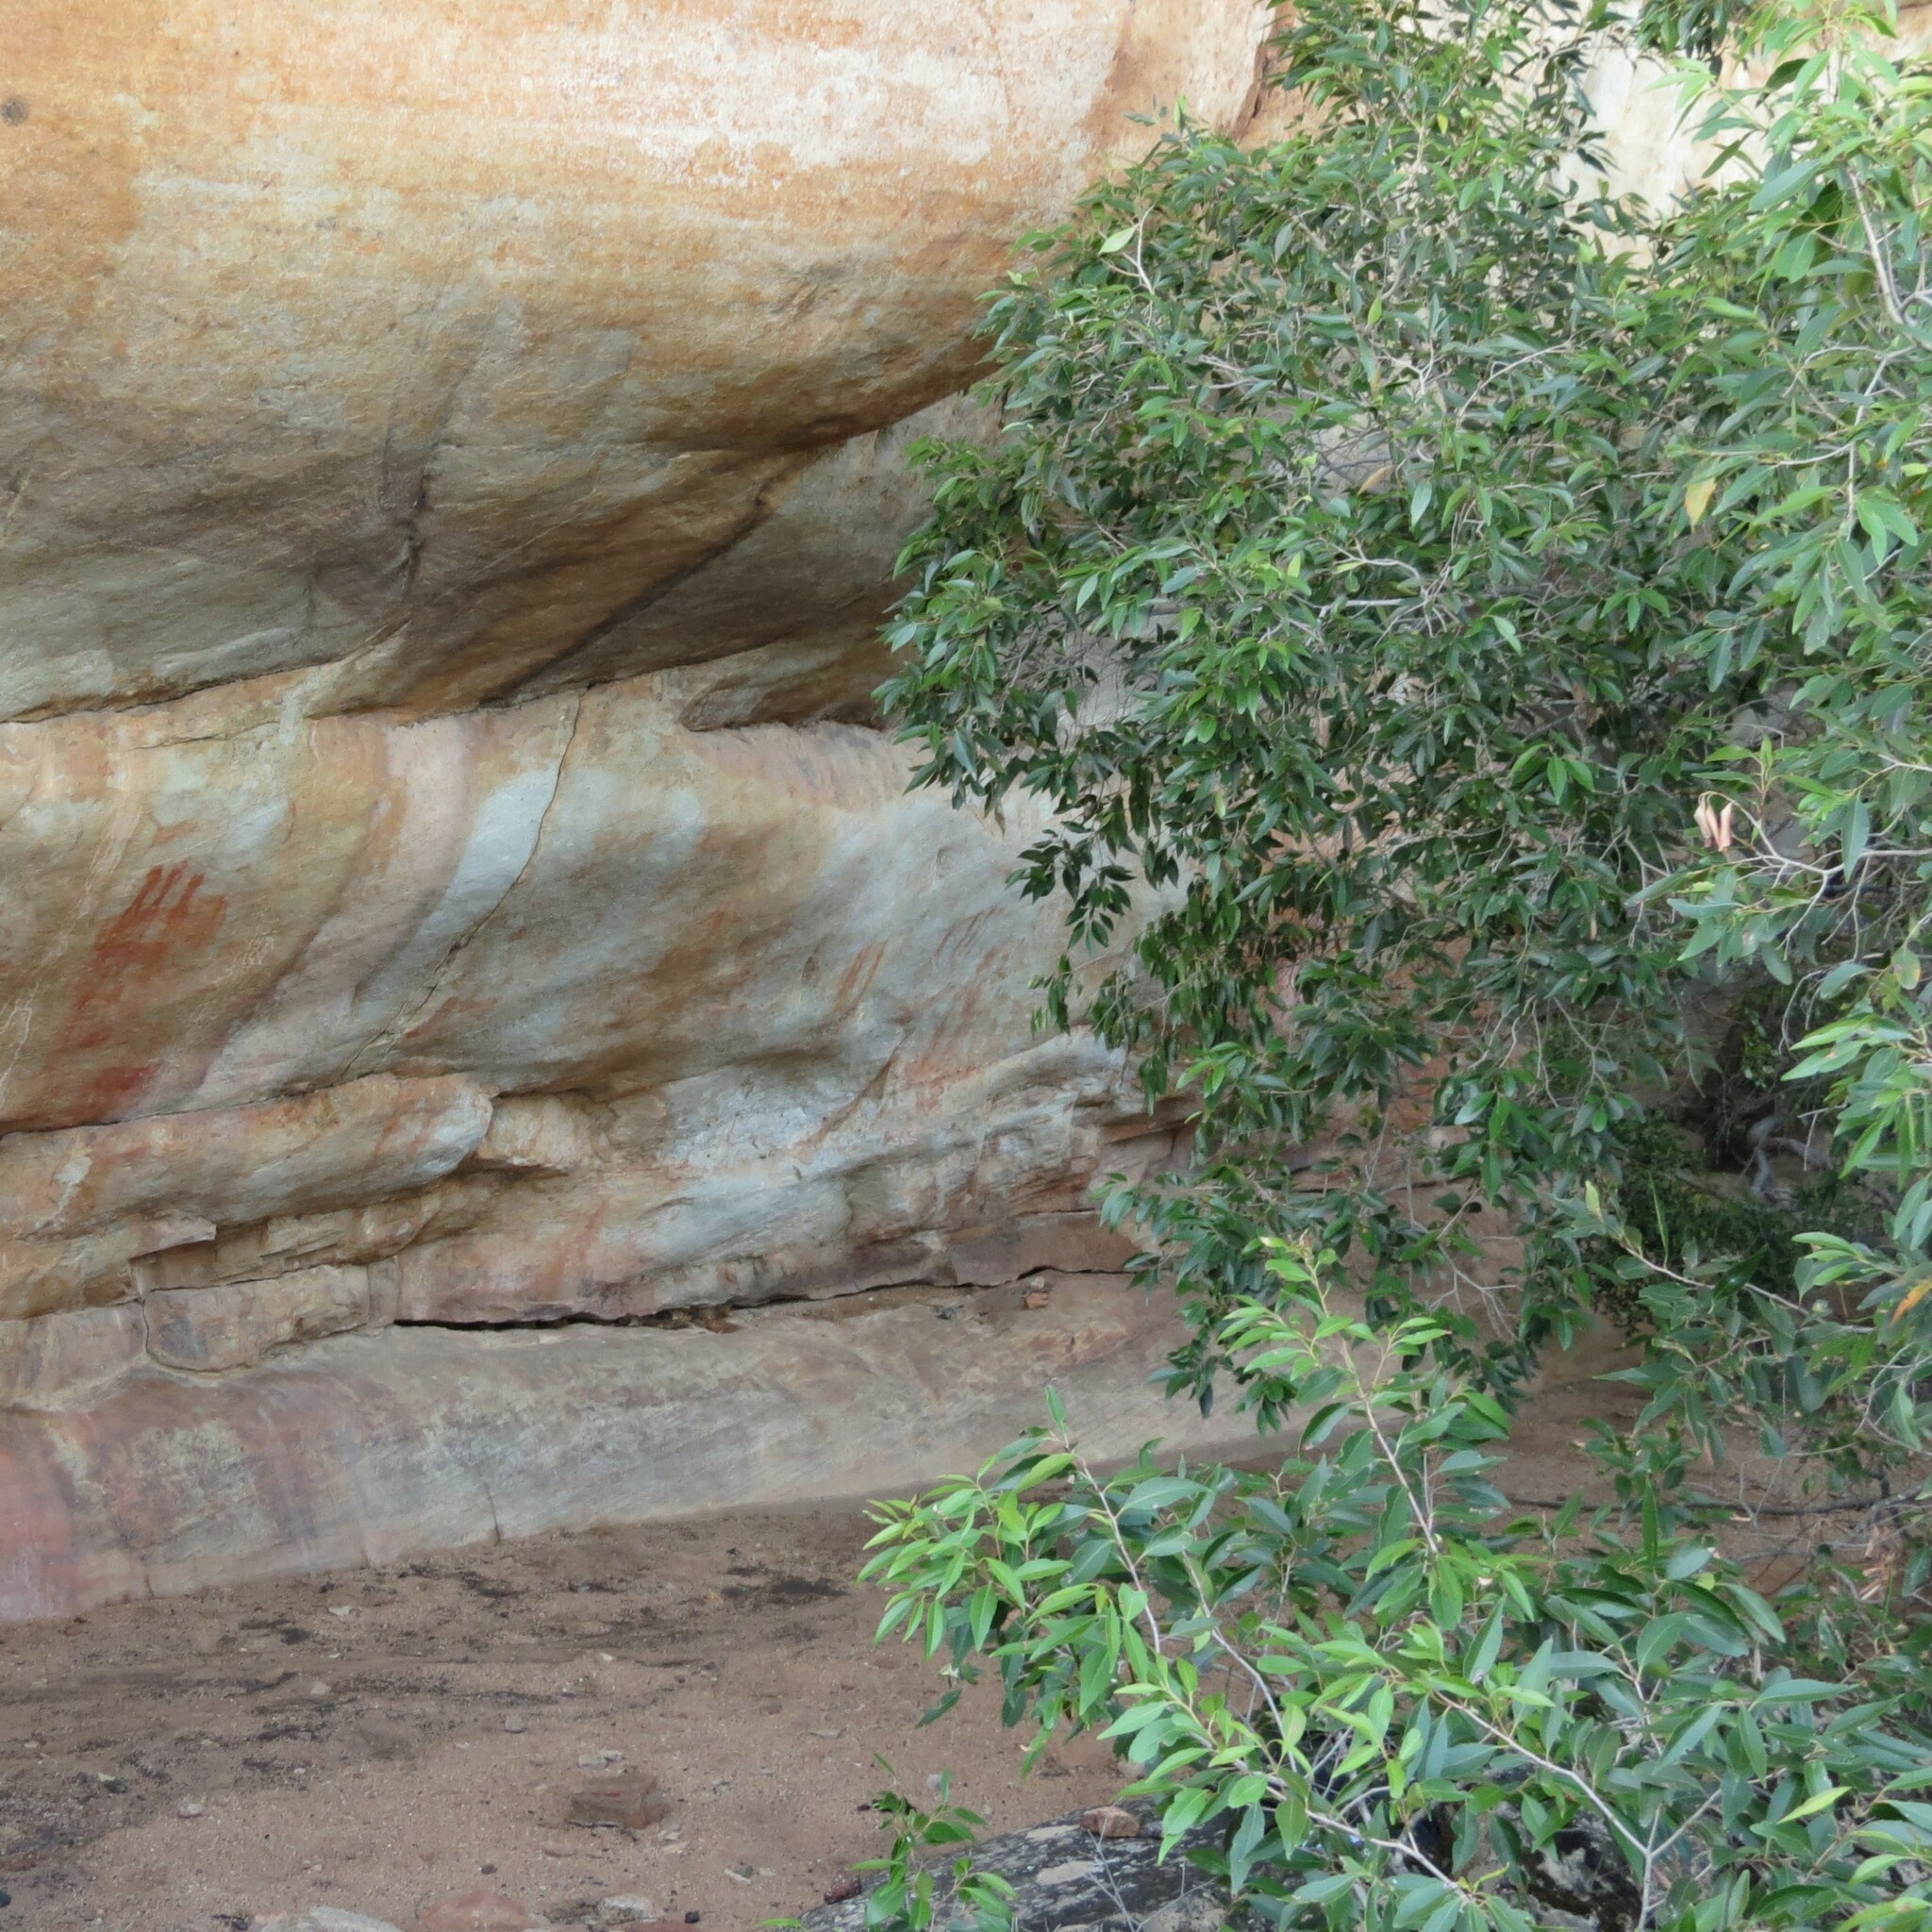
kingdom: Plantae
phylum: Tracheophyta
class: Magnoliopsida
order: Celastrales
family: Celastraceae
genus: Cassine
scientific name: Cassine peragua
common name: Cape saffron
